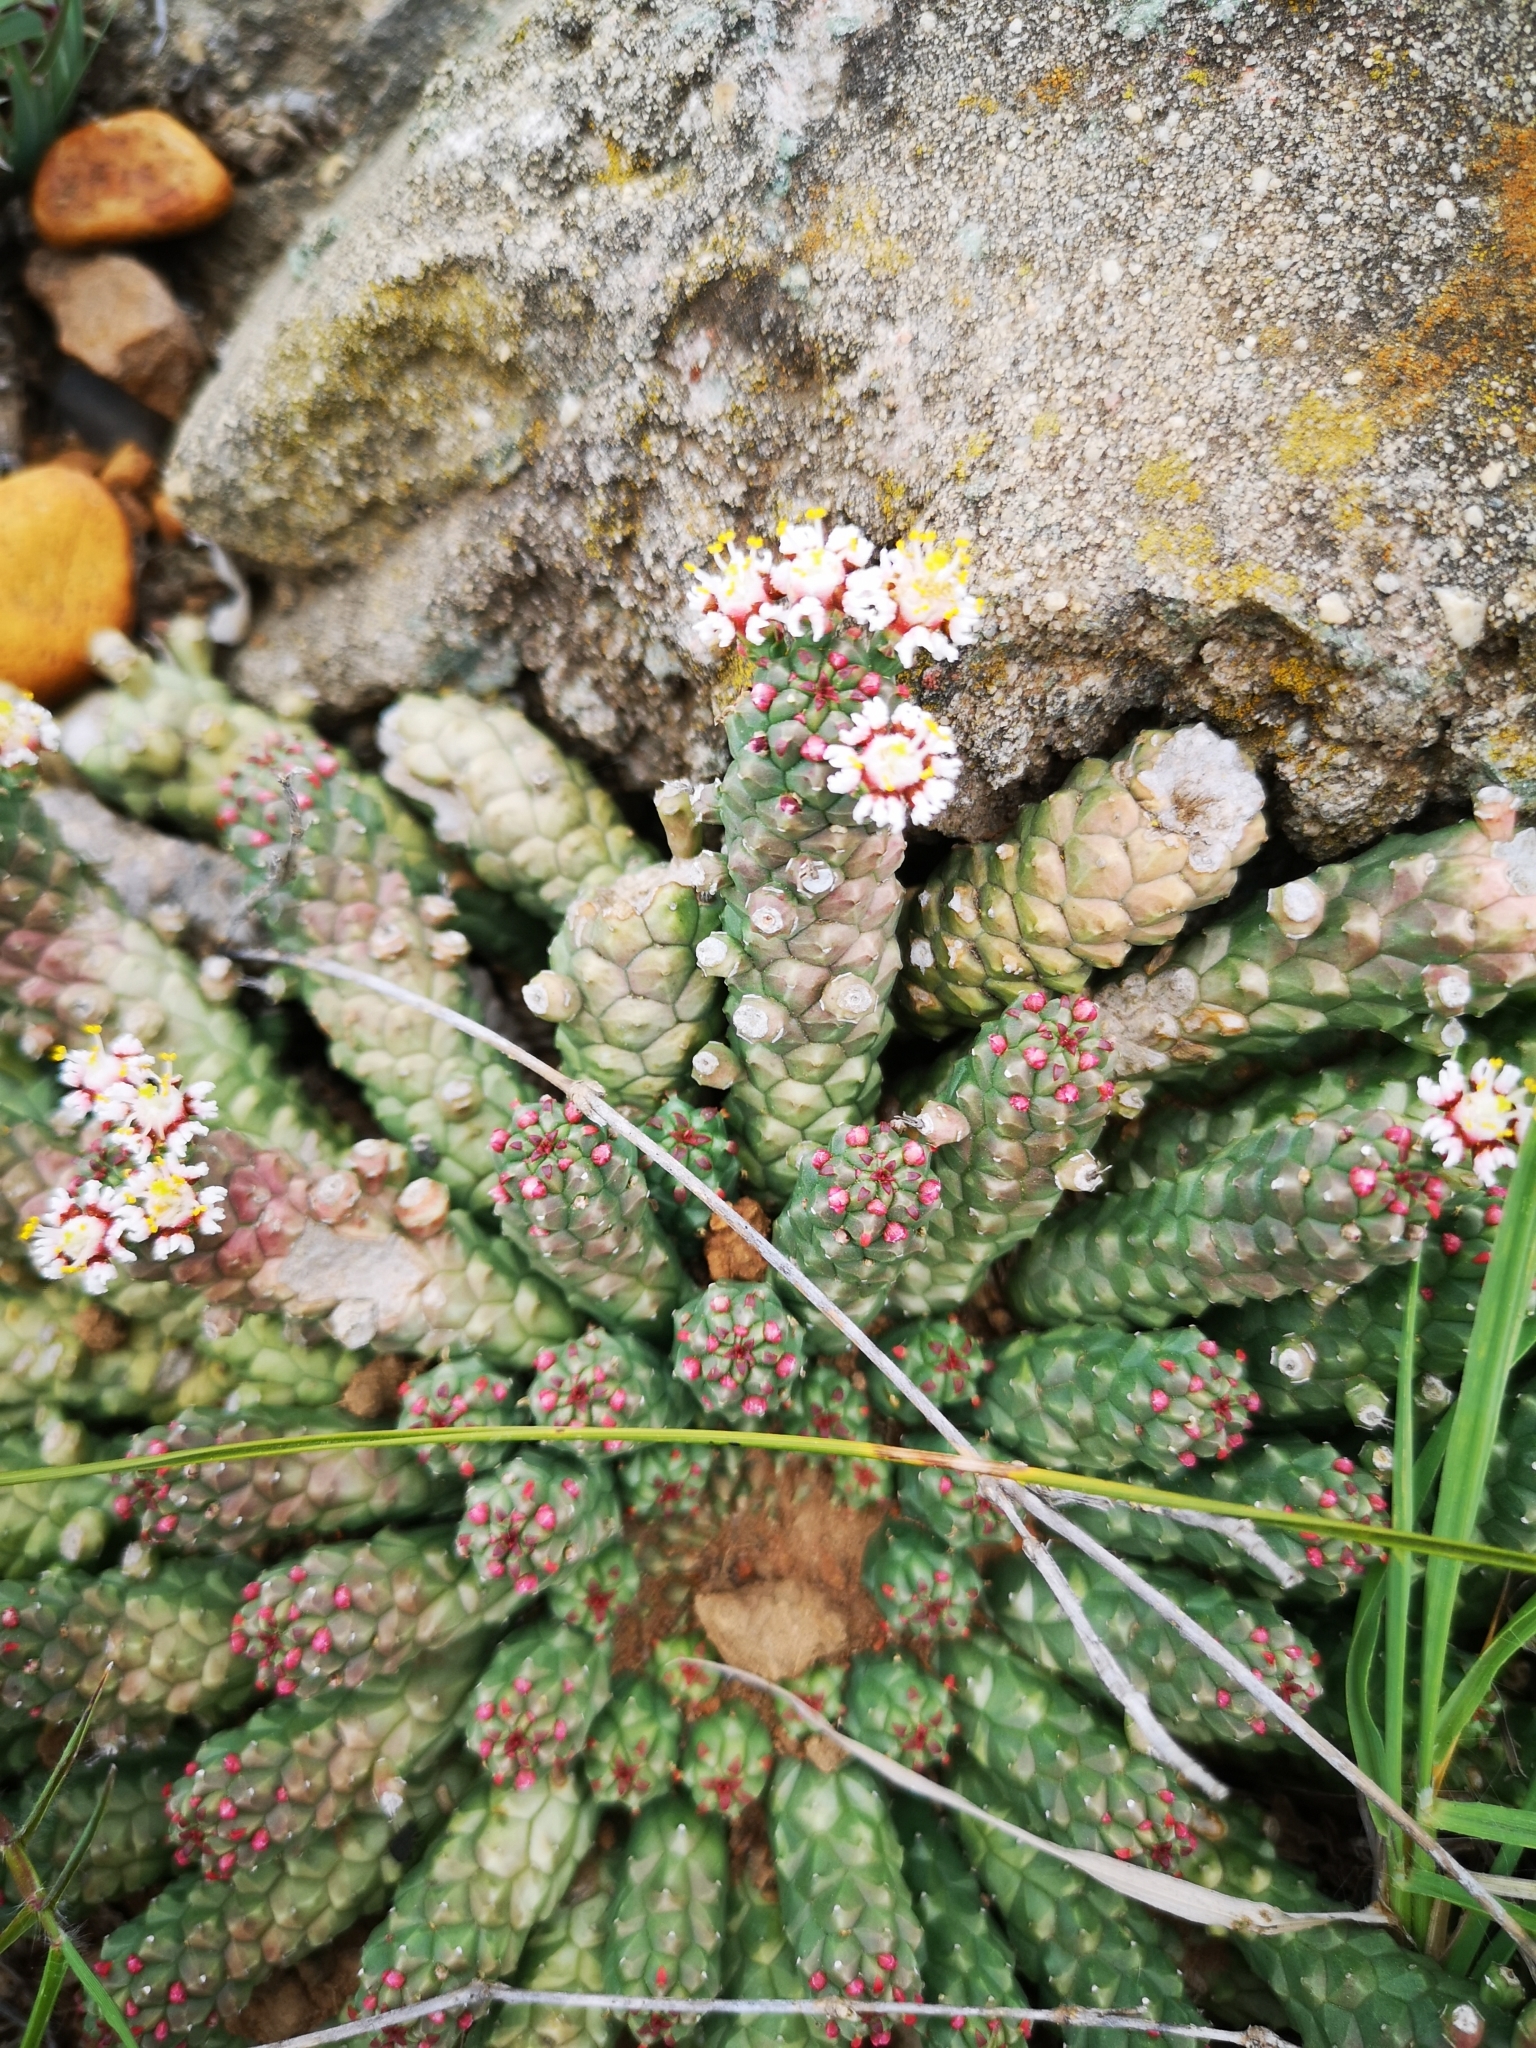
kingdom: Plantae
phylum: Tracheophyta
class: Magnoliopsida
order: Malpighiales
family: Euphorbiaceae
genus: Euphorbia
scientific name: Euphorbia inermis
